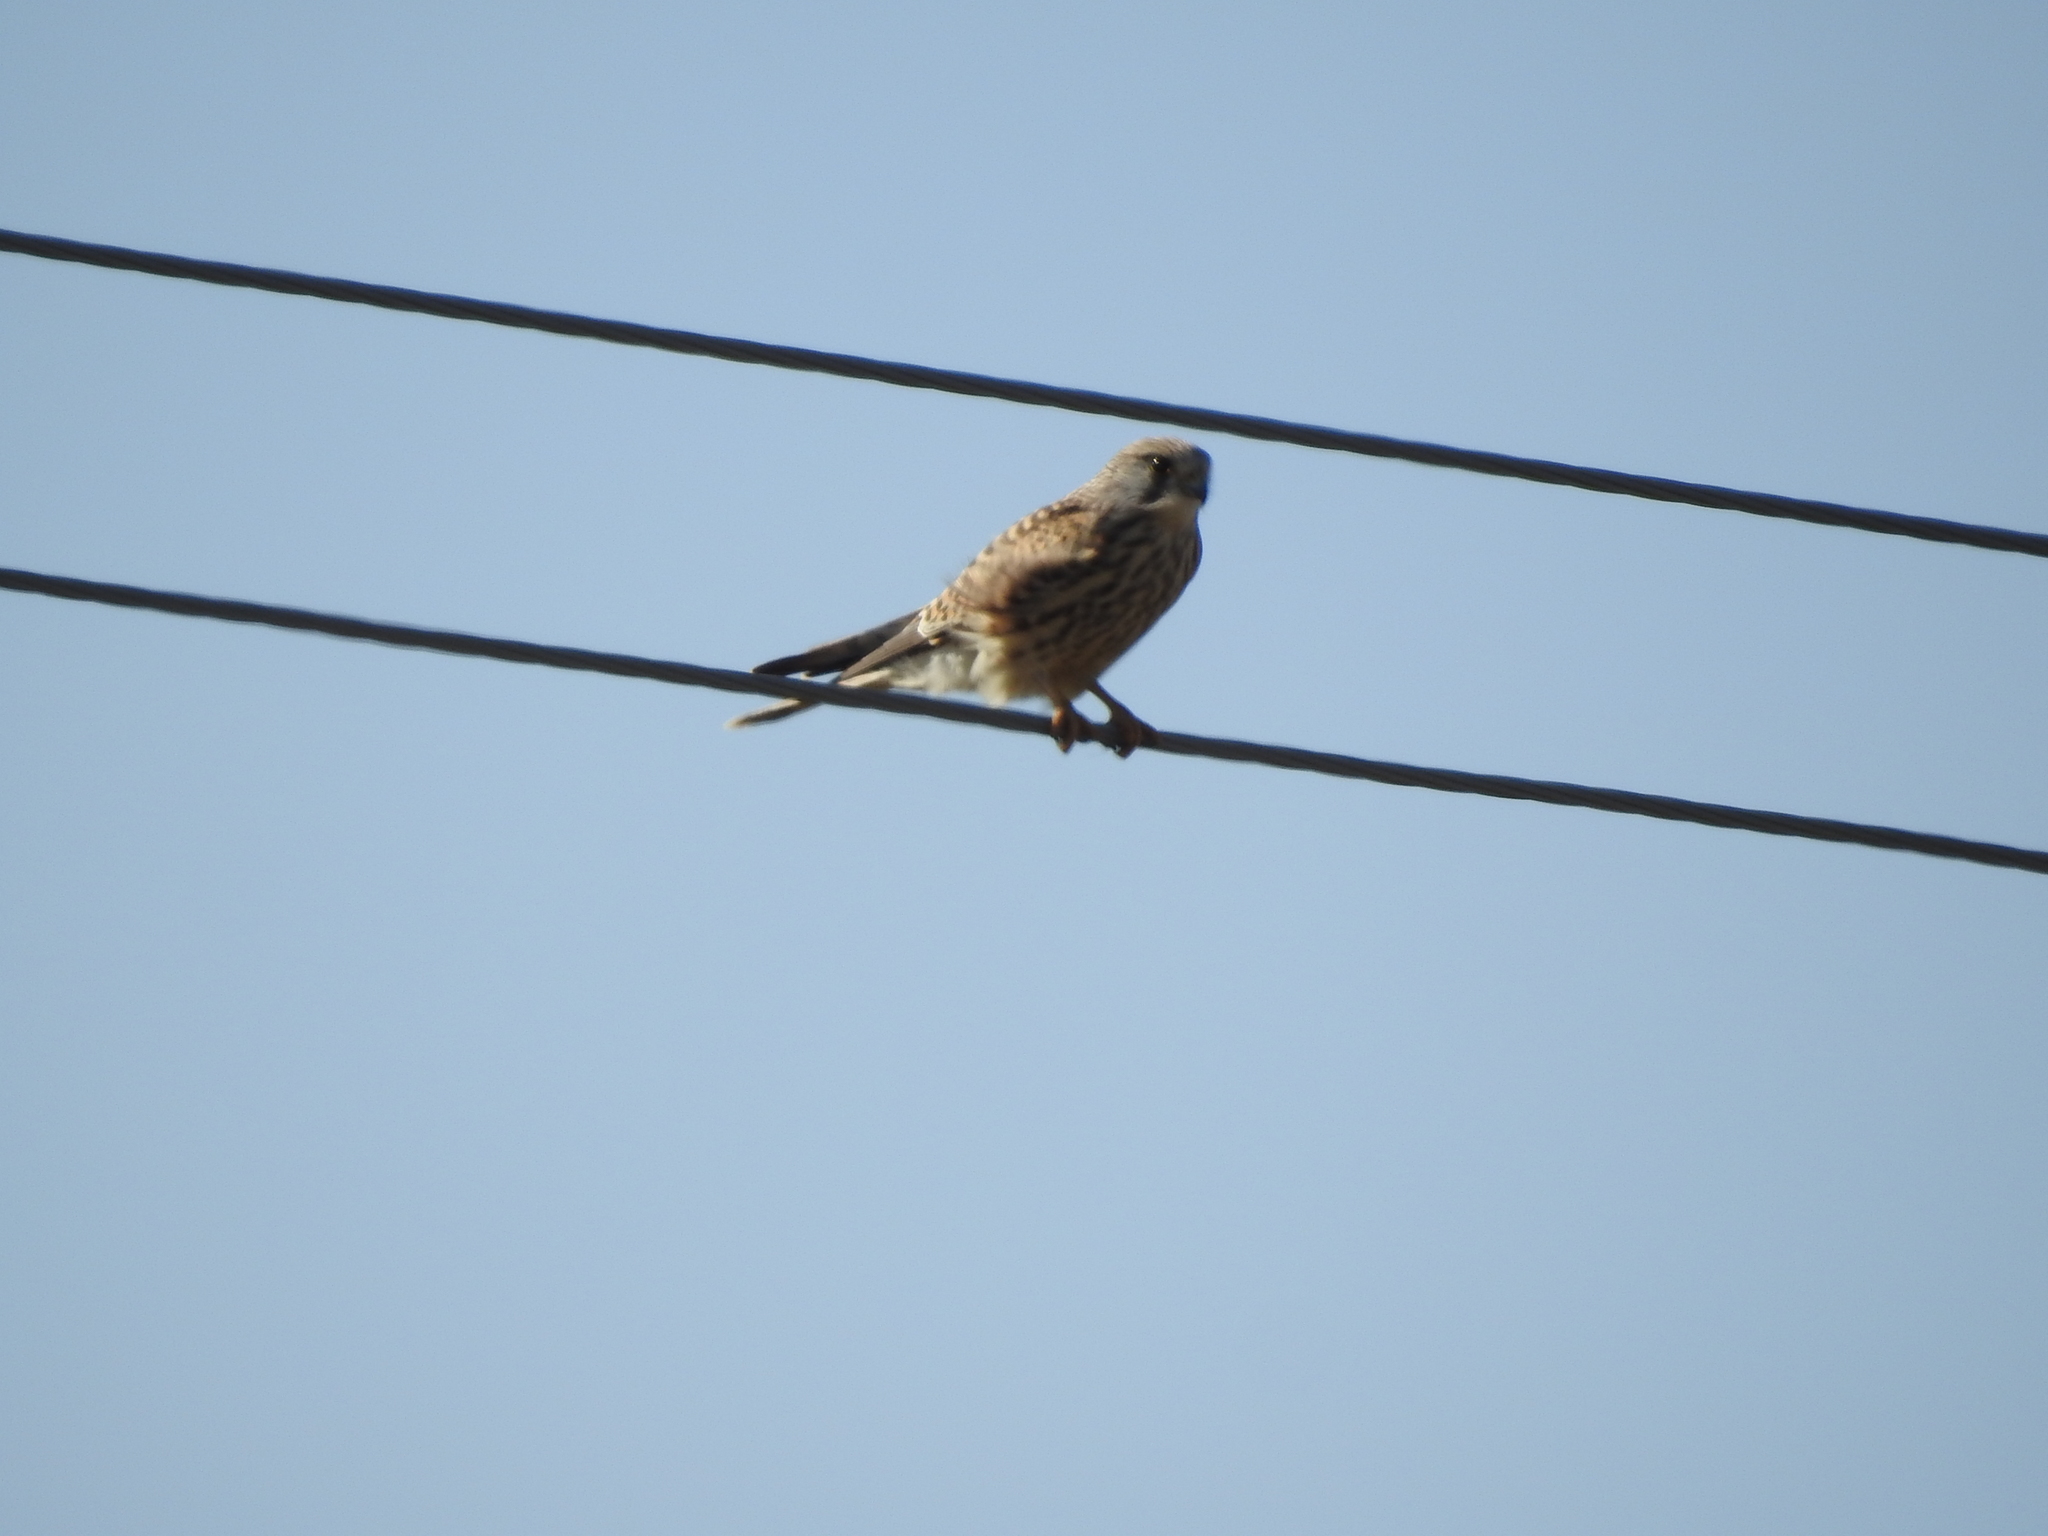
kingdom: Animalia
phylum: Chordata
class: Aves
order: Falconiformes
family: Falconidae
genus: Falco
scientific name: Falco tinnunculus
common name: Common kestrel
